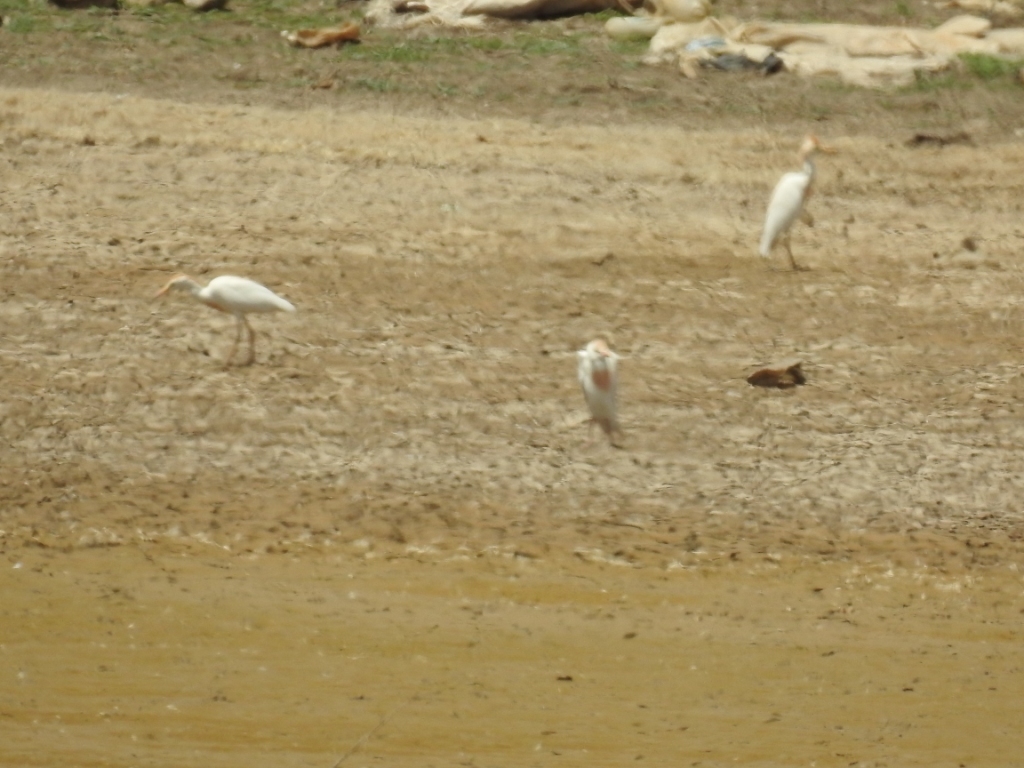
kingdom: Animalia
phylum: Chordata
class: Aves
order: Pelecaniformes
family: Ardeidae
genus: Bubulcus
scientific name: Bubulcus ibis
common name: Cattle egret
